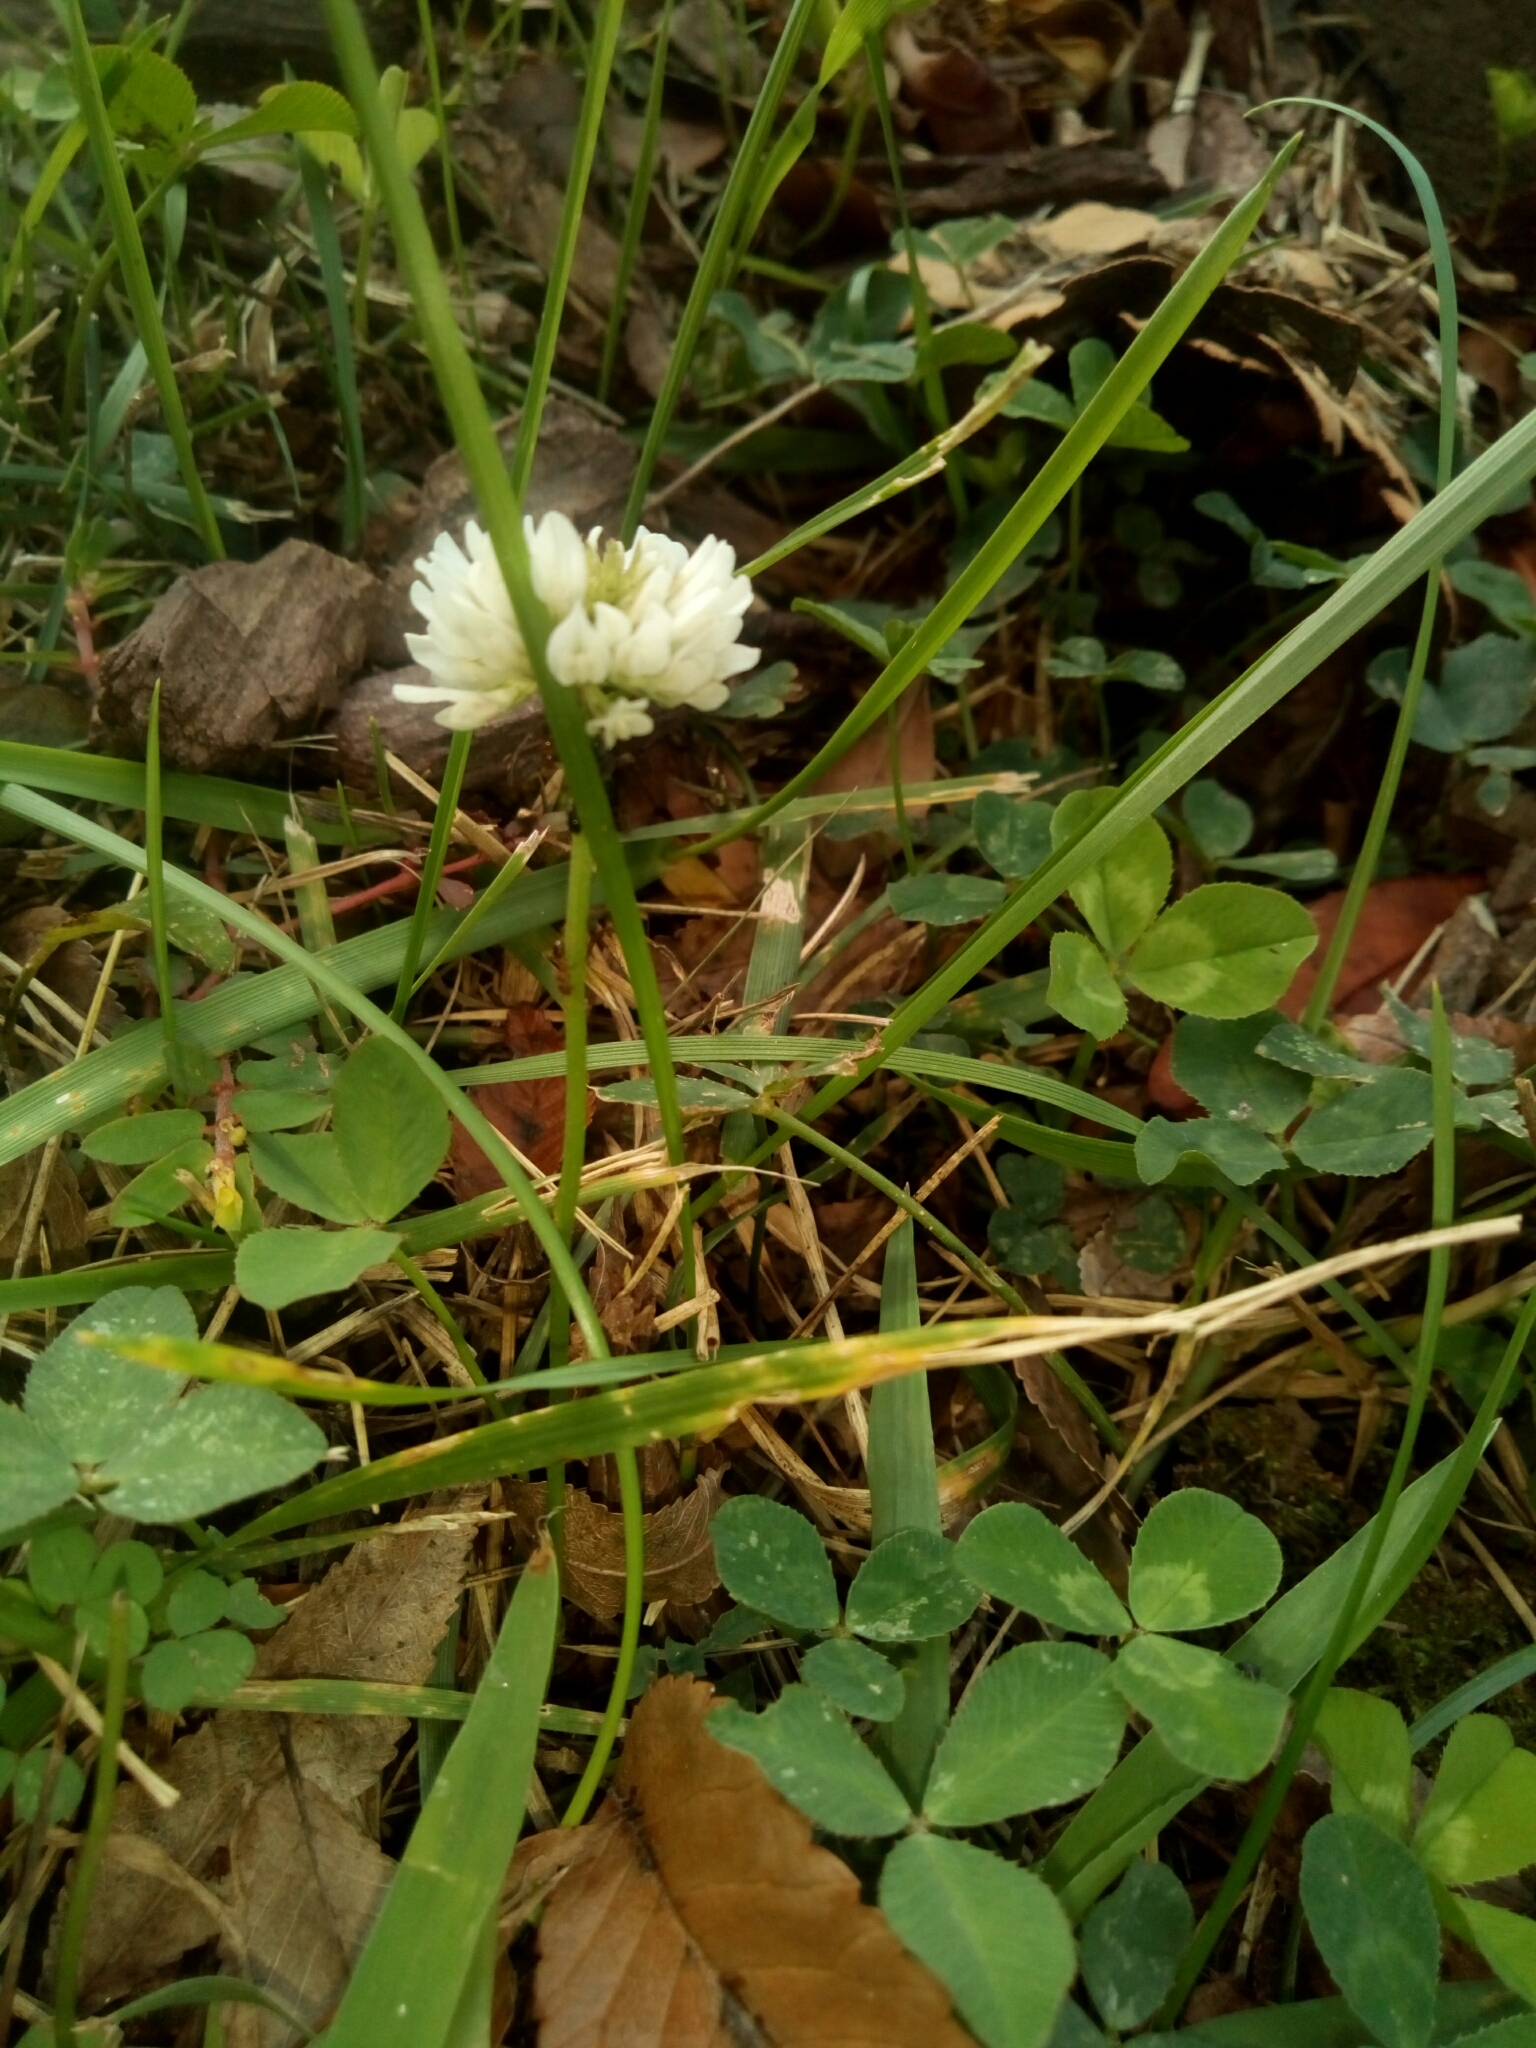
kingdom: Plantae
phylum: Tracheophyta
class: Magnoliopsida
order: Fabales
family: Fabaceae
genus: Trifolium
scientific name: Trifolium repens
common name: White clover
